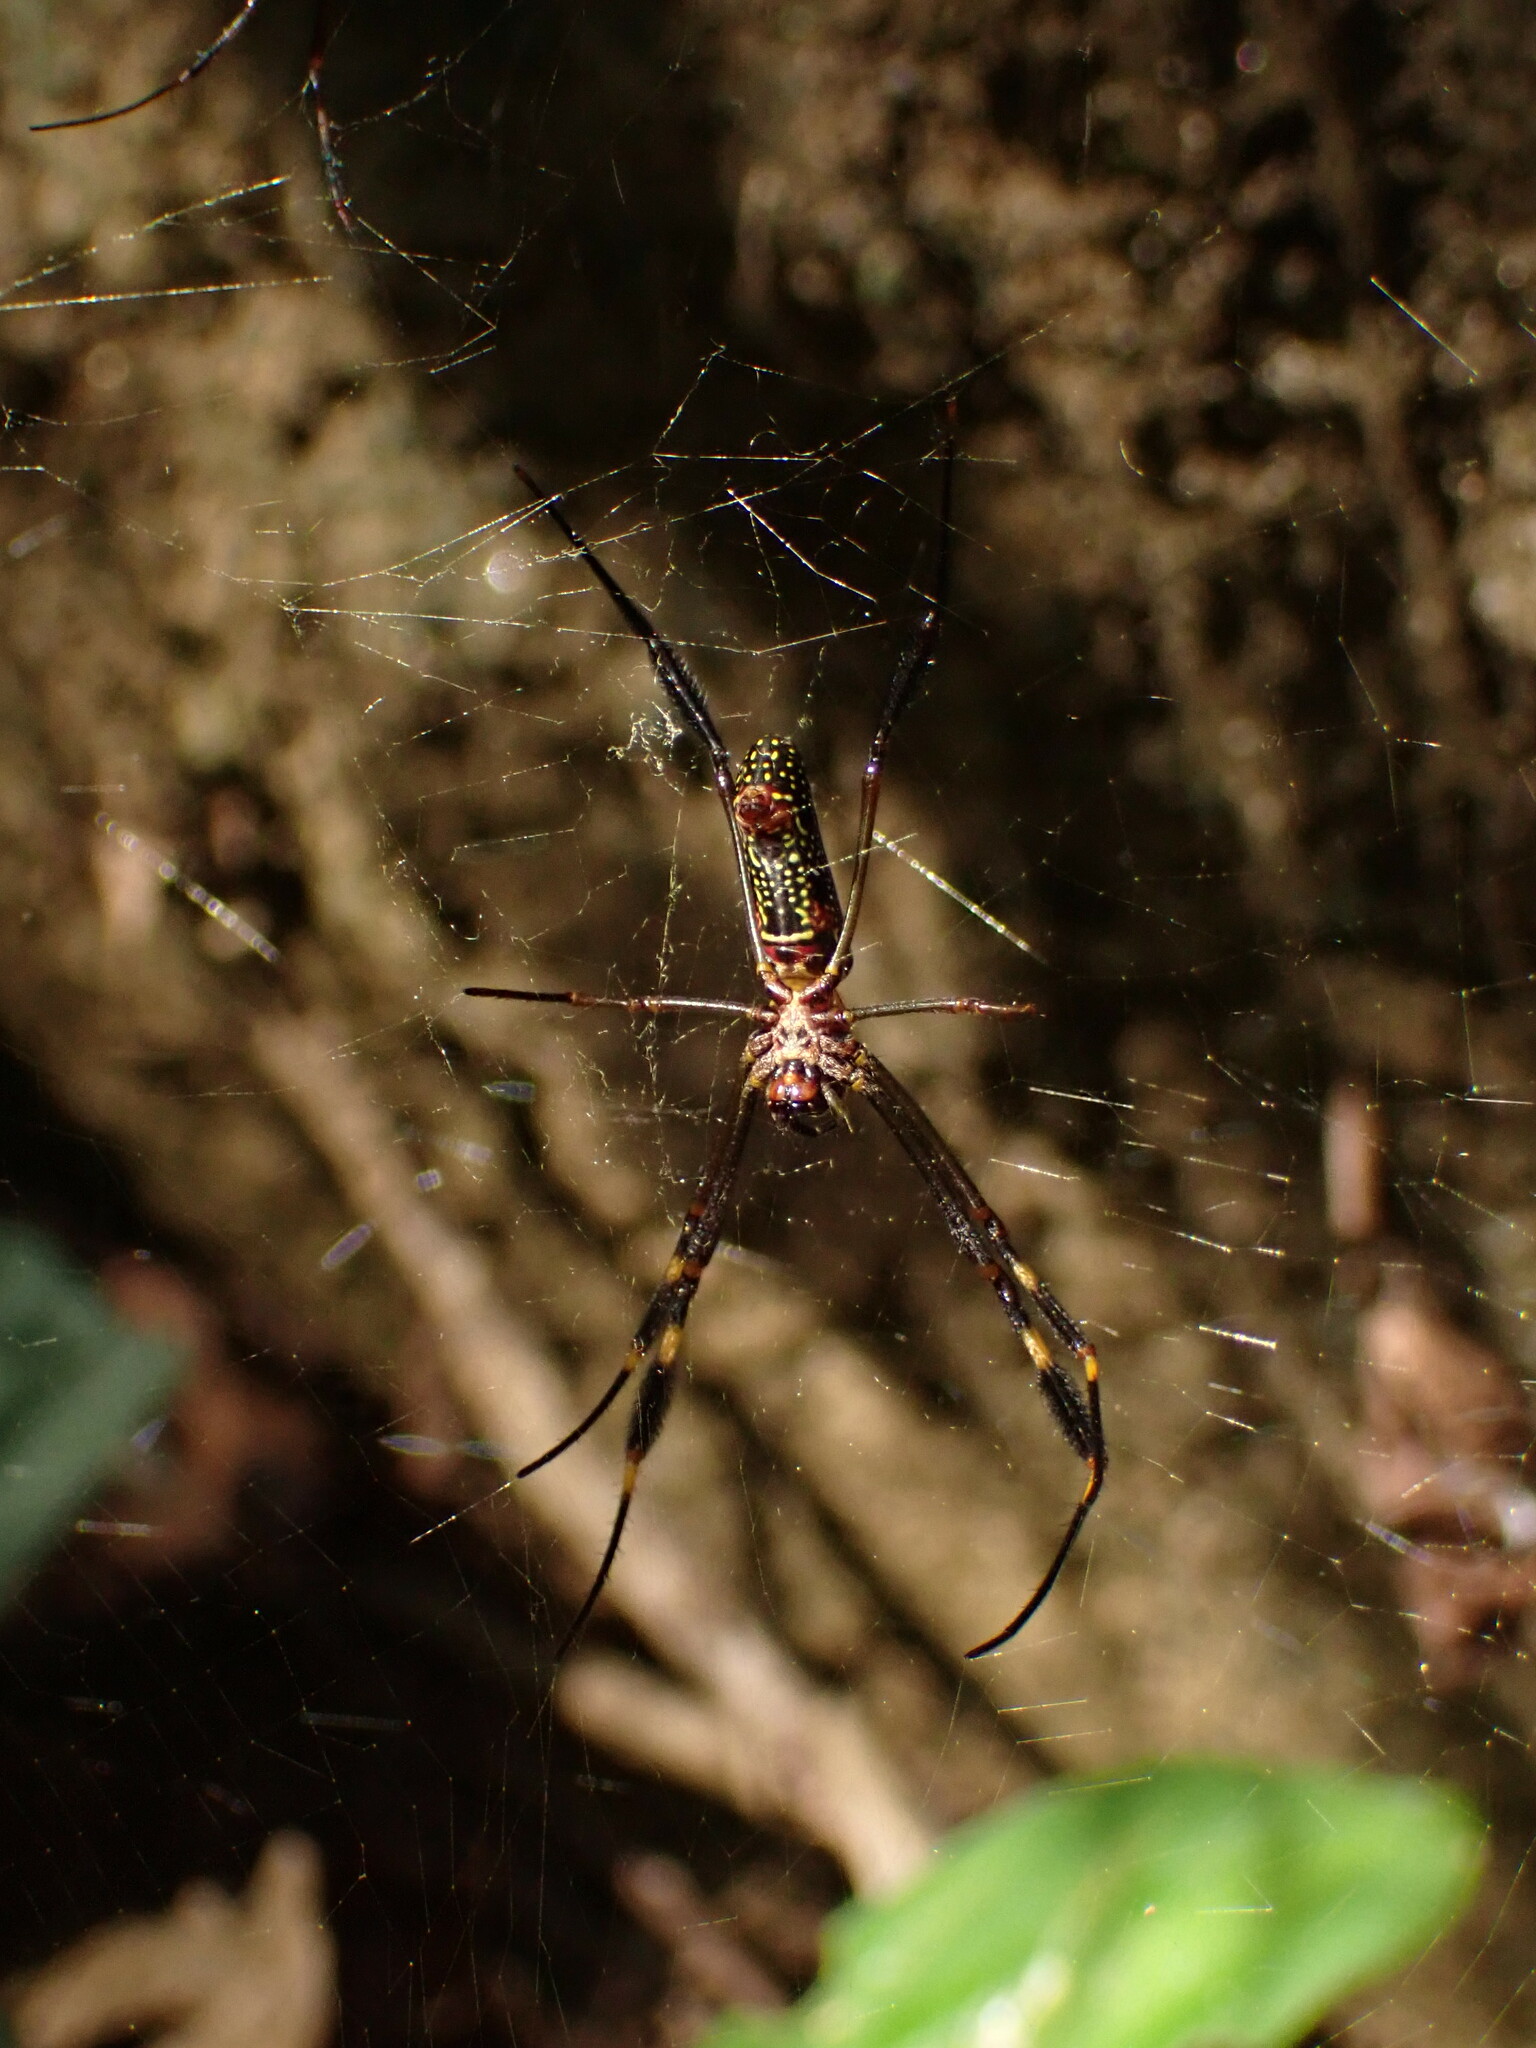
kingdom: Animalia
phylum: Arthropoda
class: Arachnida
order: Araneae
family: Araneidae
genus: Trichonephila
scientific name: Trichonephila clavipes
